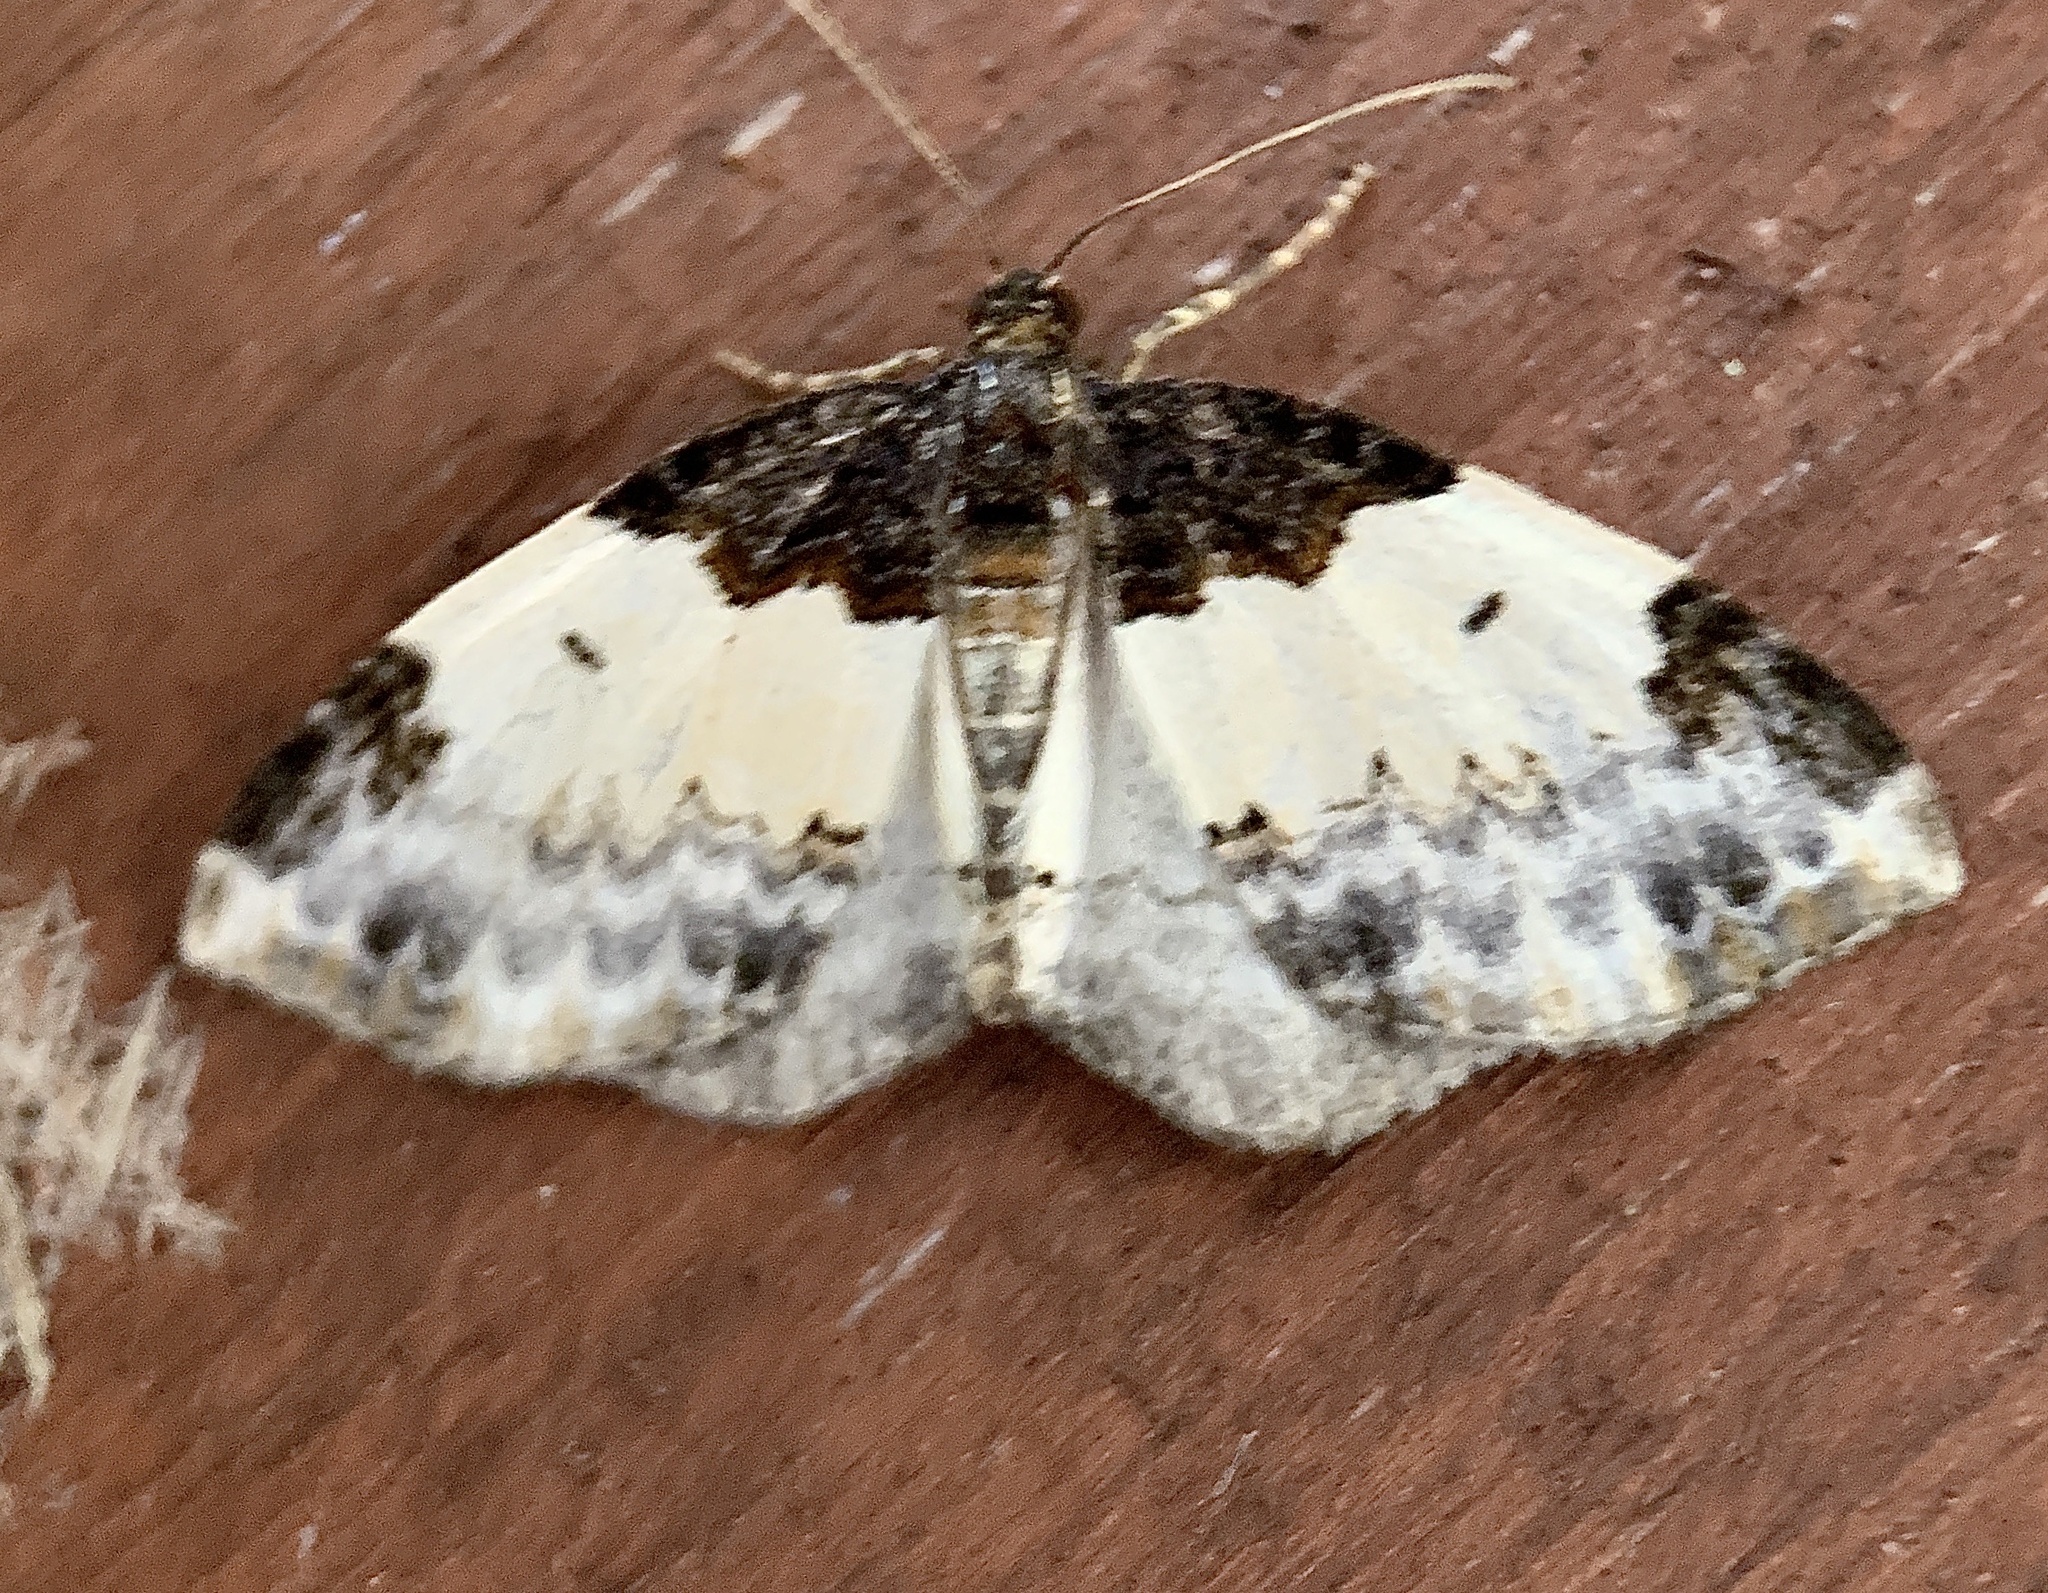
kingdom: Animalia
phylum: Arthropoda
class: Insecta
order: Lepidoptera
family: Geometridae
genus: Mesoleuca
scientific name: Mesoleuca ruficillata
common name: White-ribboned carpet moth
